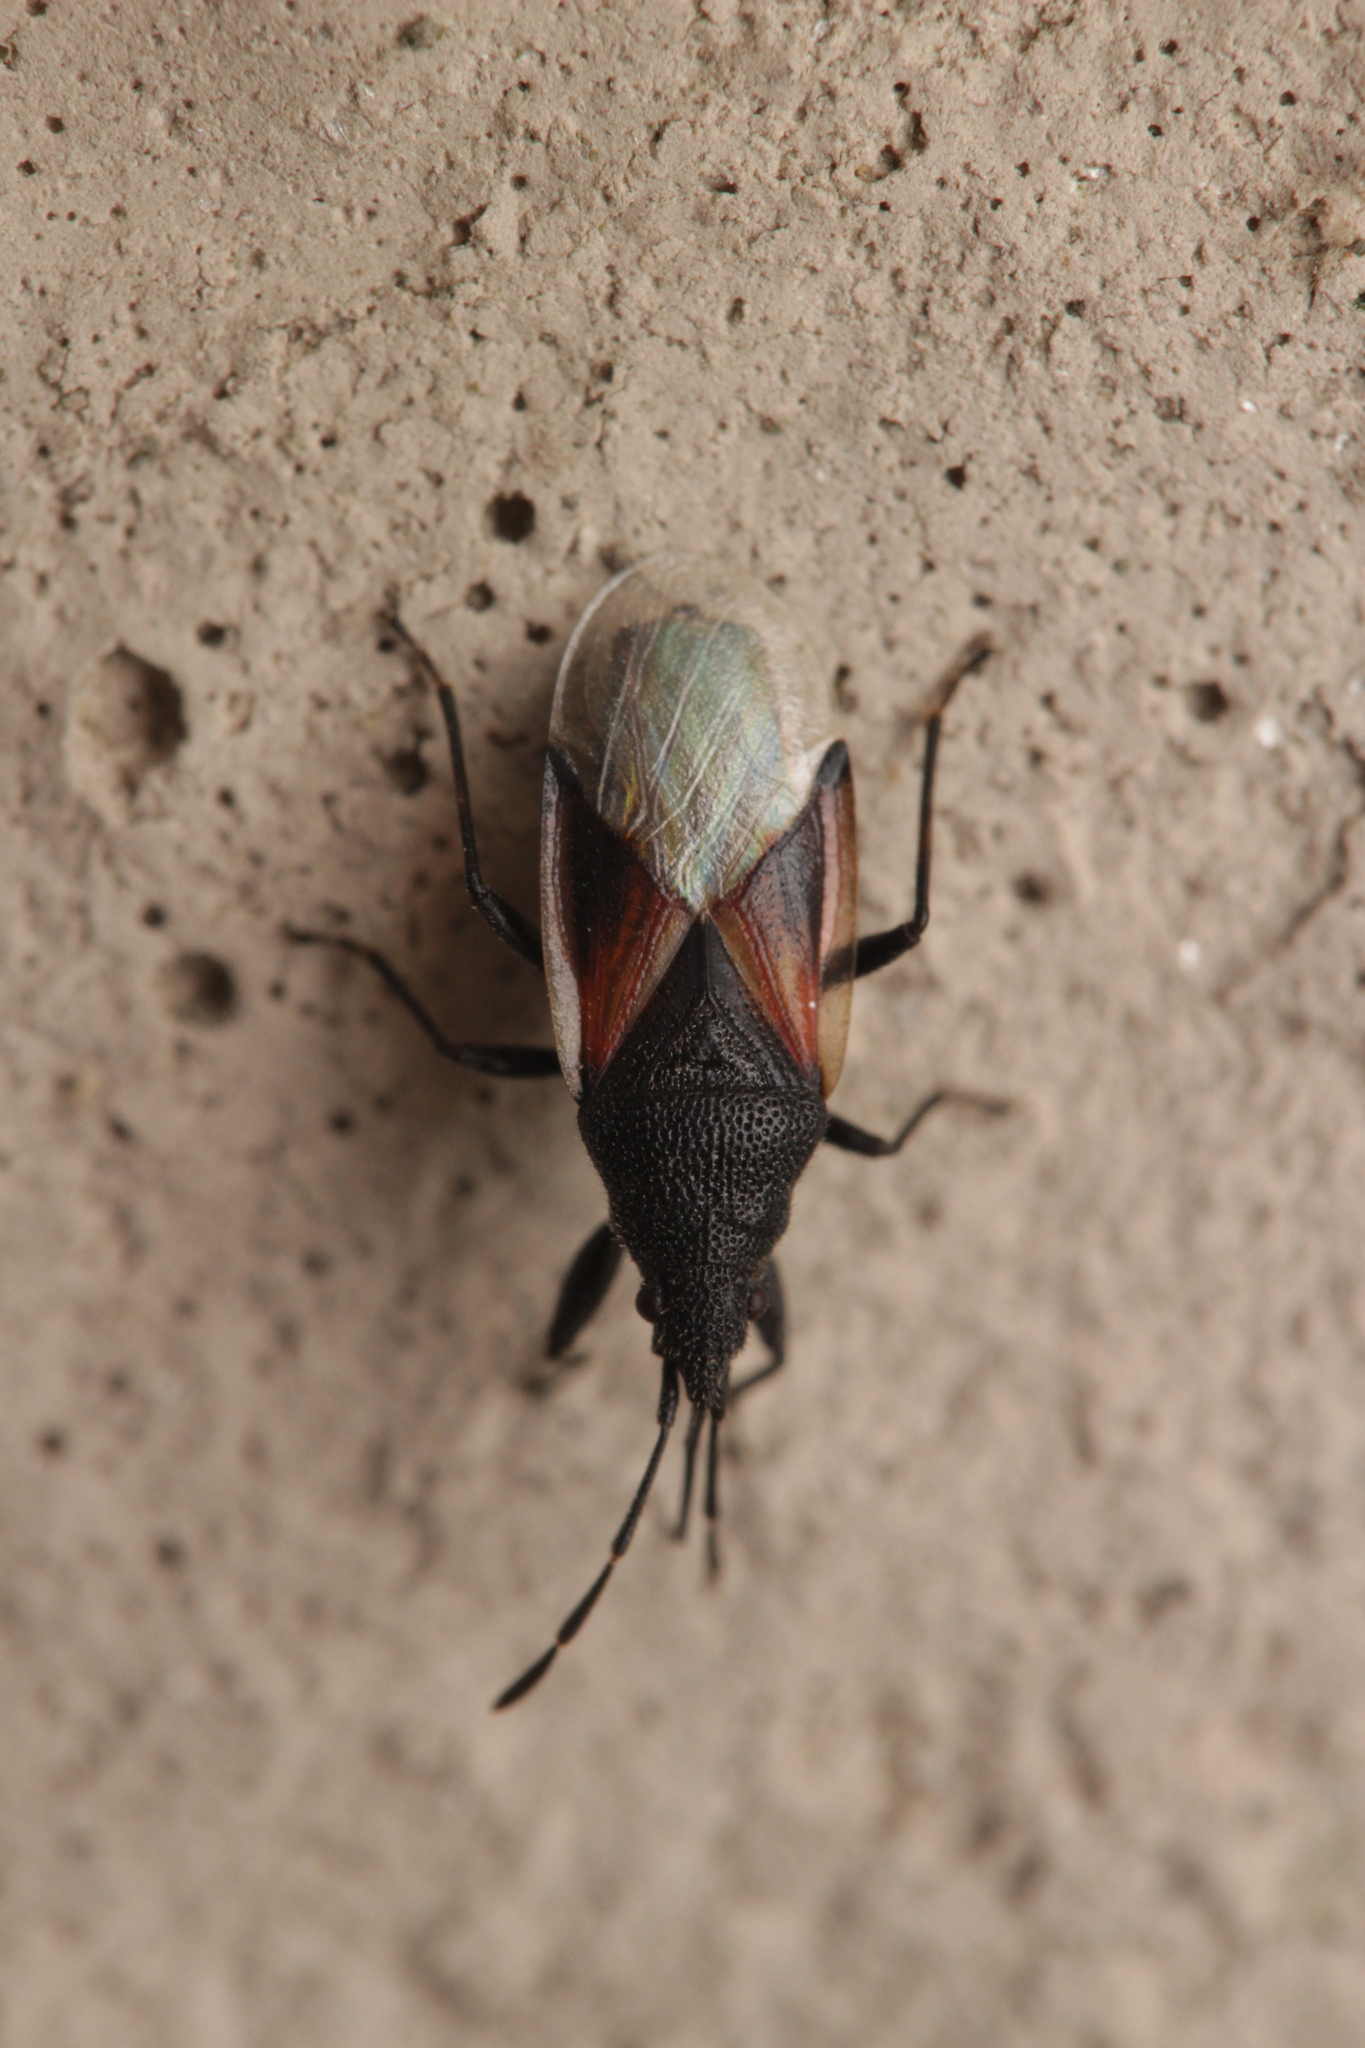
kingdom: Animalia
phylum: Arthropoda
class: Insecta
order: Hemiptera
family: Oxycarenidae
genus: Oxycarenus
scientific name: Oxycarenus lavaterae
